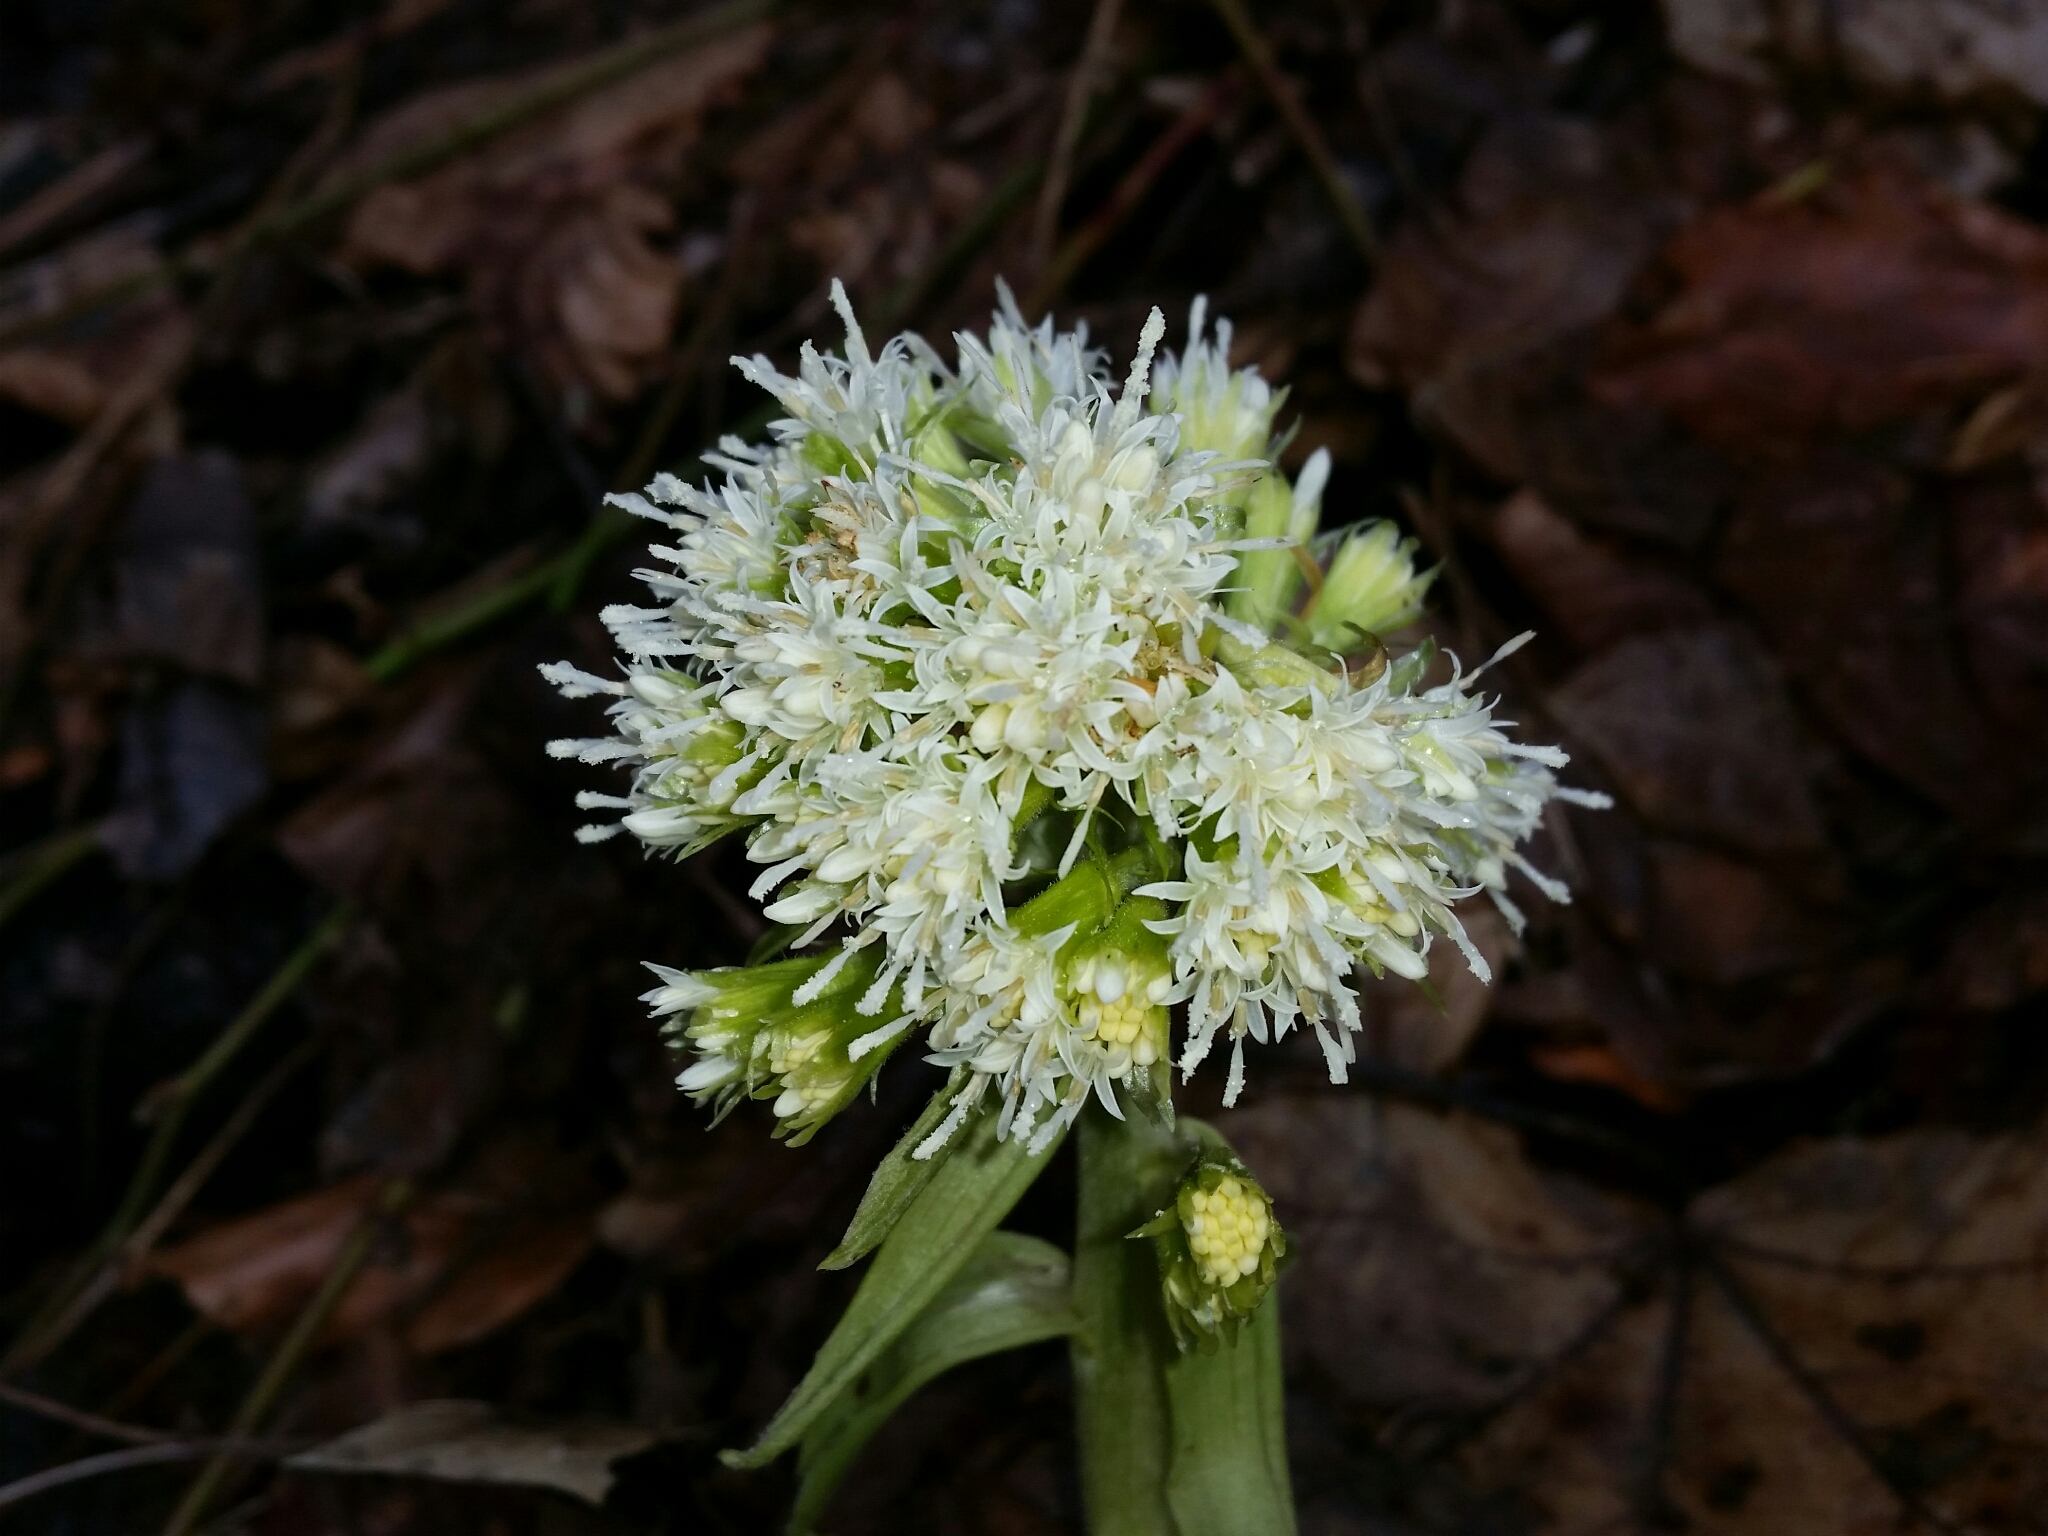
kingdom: Plantae
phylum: Tracheophyta
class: Magnoliopsida
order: Asterales
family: Asteraceae
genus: Petasites
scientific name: Petasites albus
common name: White butterbur
